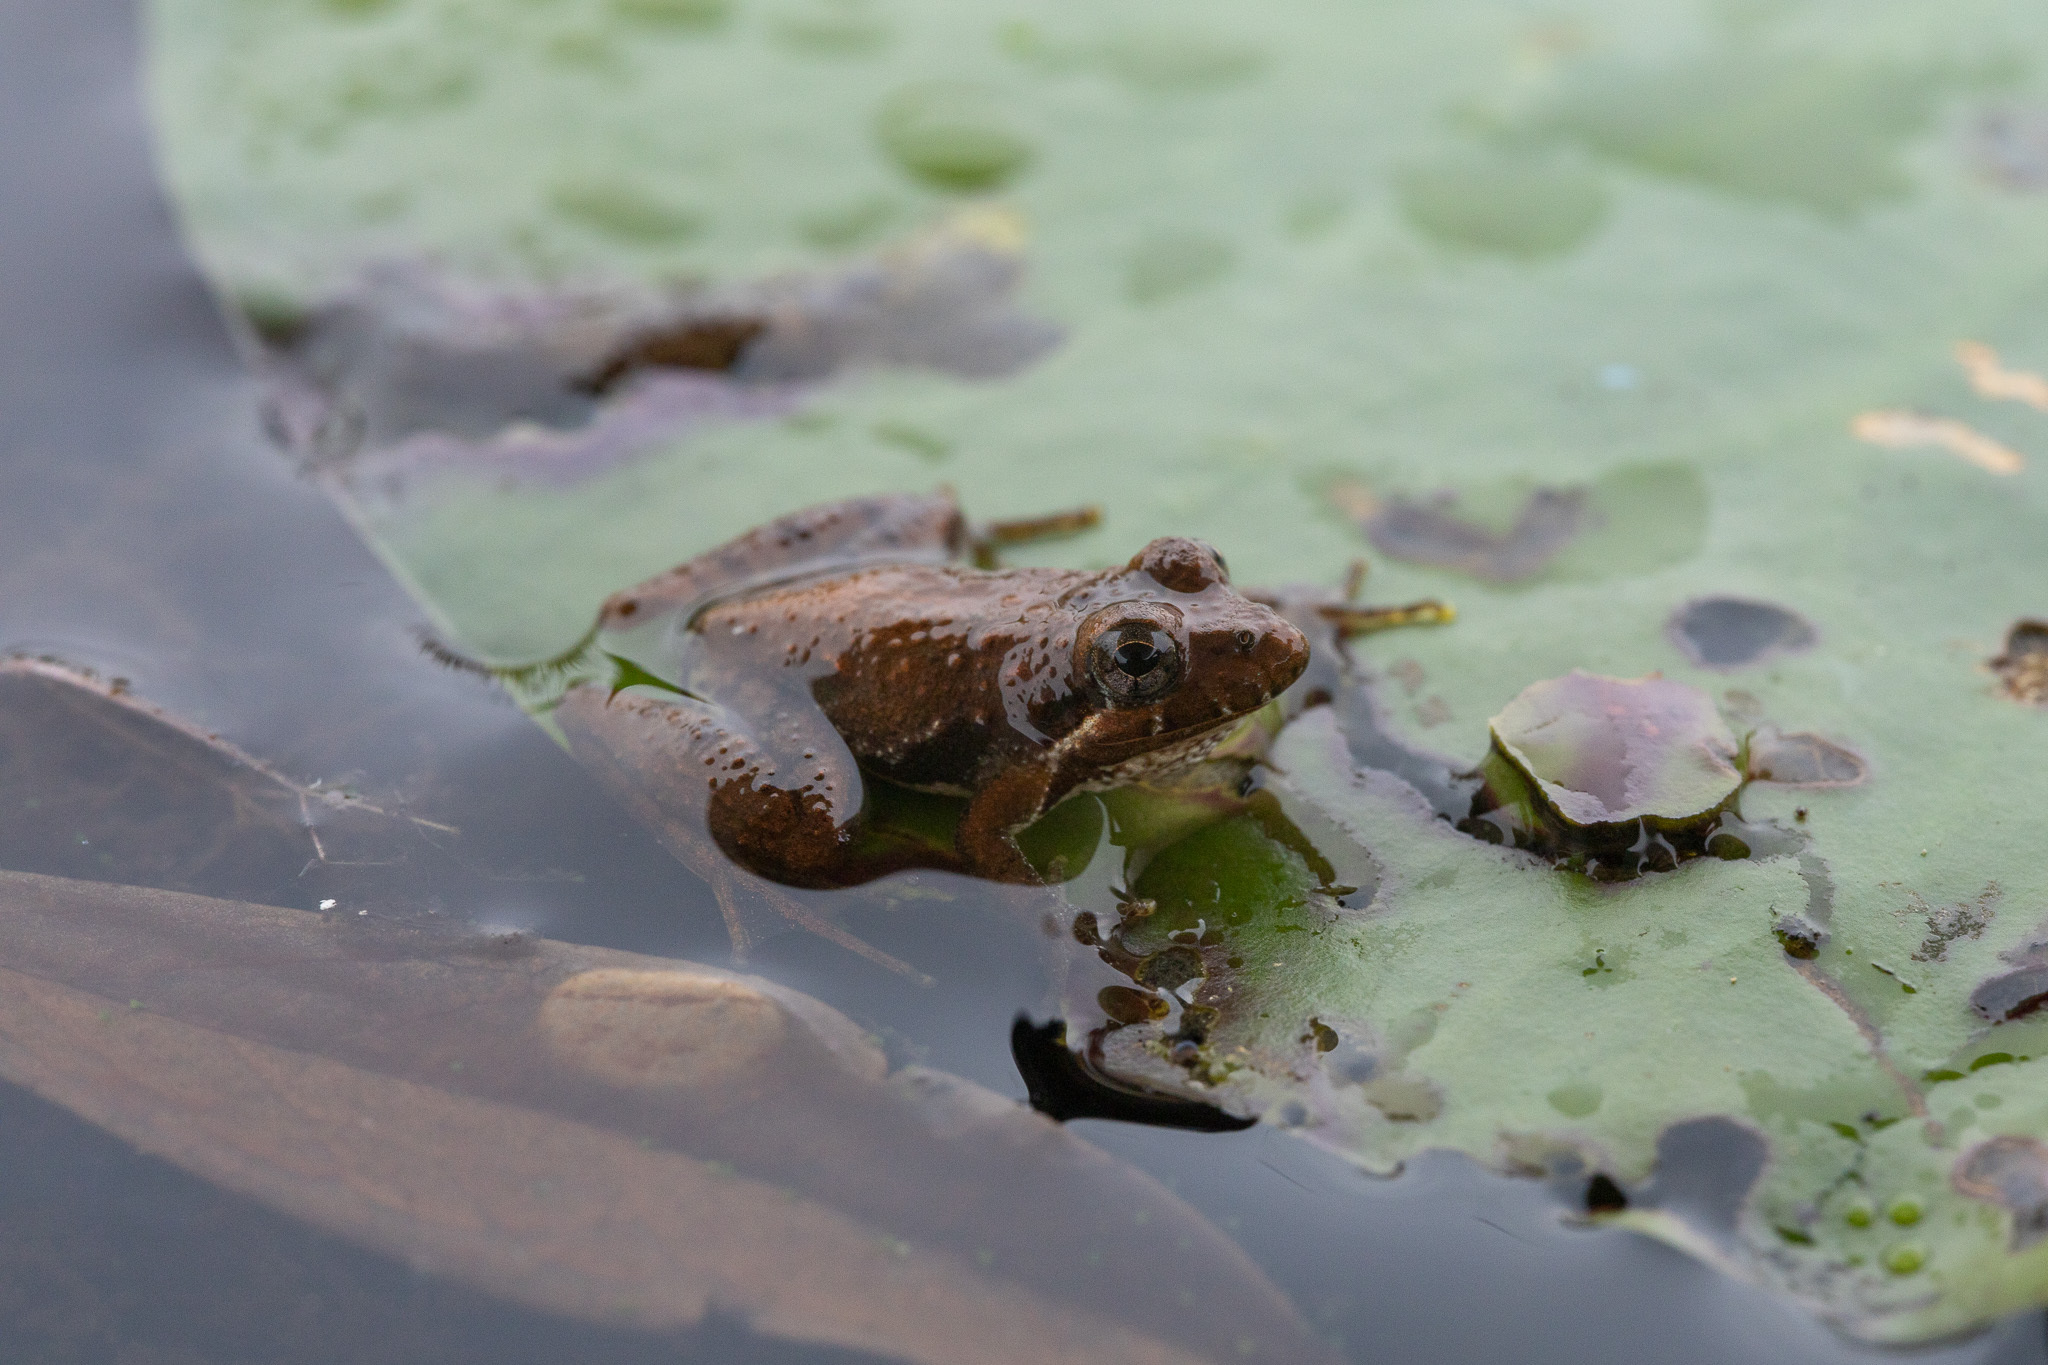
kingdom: Animalia
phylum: Chordata
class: Amphibia
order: Anura
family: Hylidae
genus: Acris
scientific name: Acris gryllus
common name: Southern cricket frog
